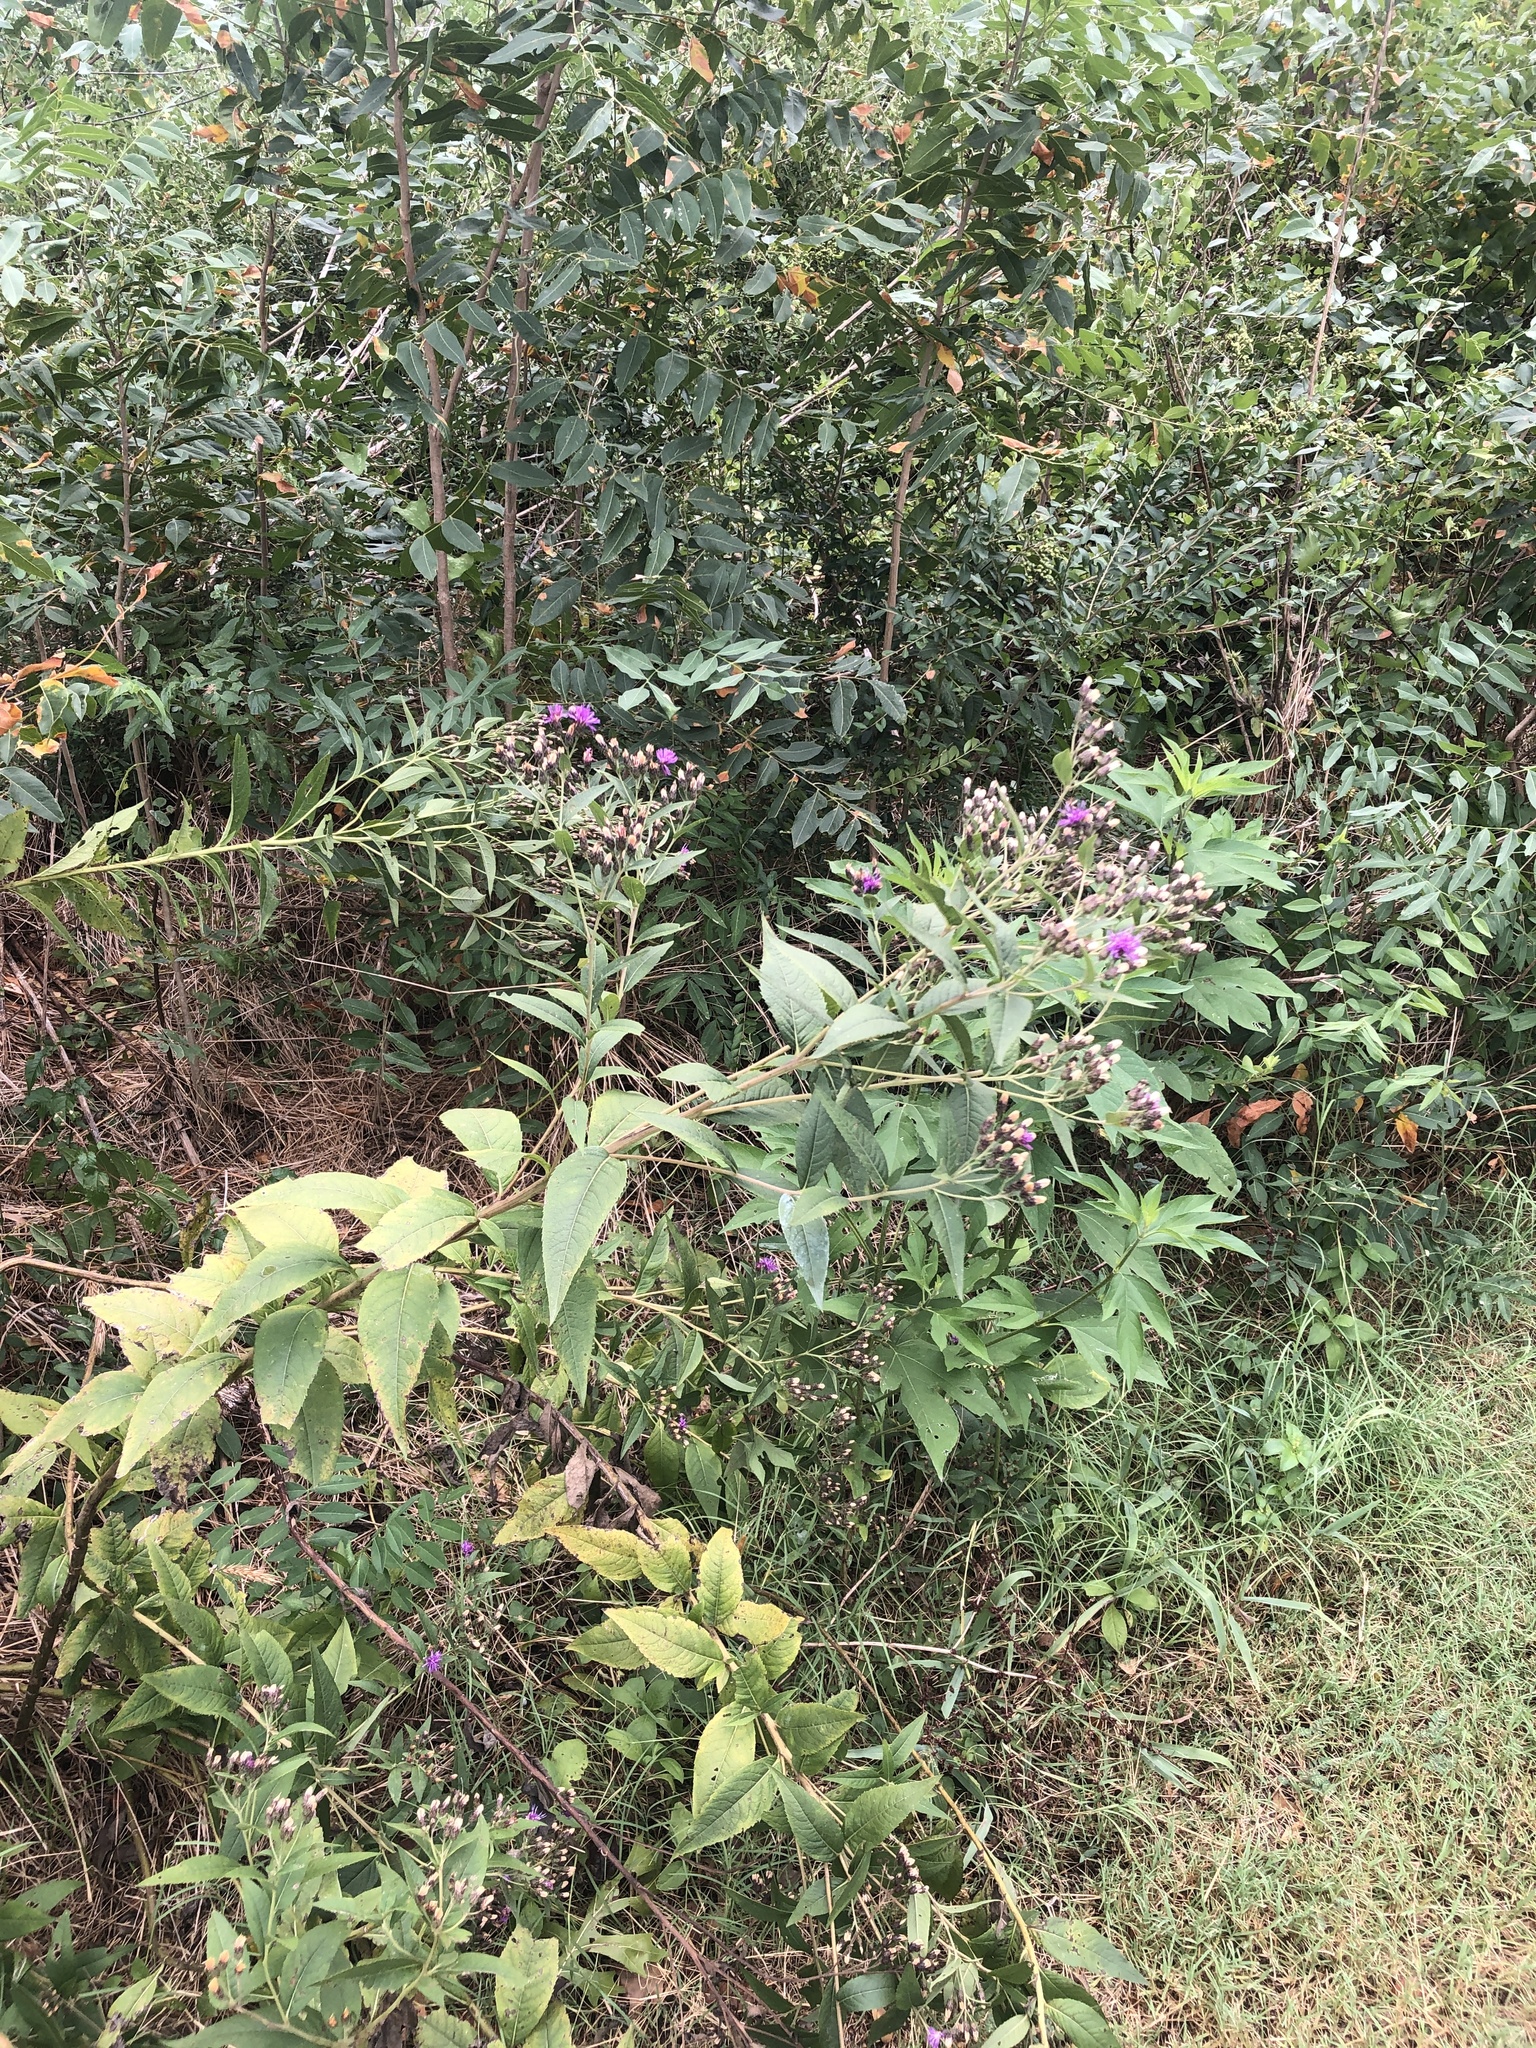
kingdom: Plantae
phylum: Tracheophyta
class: Magnoliopsida
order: Asterales
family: Asteraceae
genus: Vernonia
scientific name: Vernonia baldwinii
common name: Western ironweed
